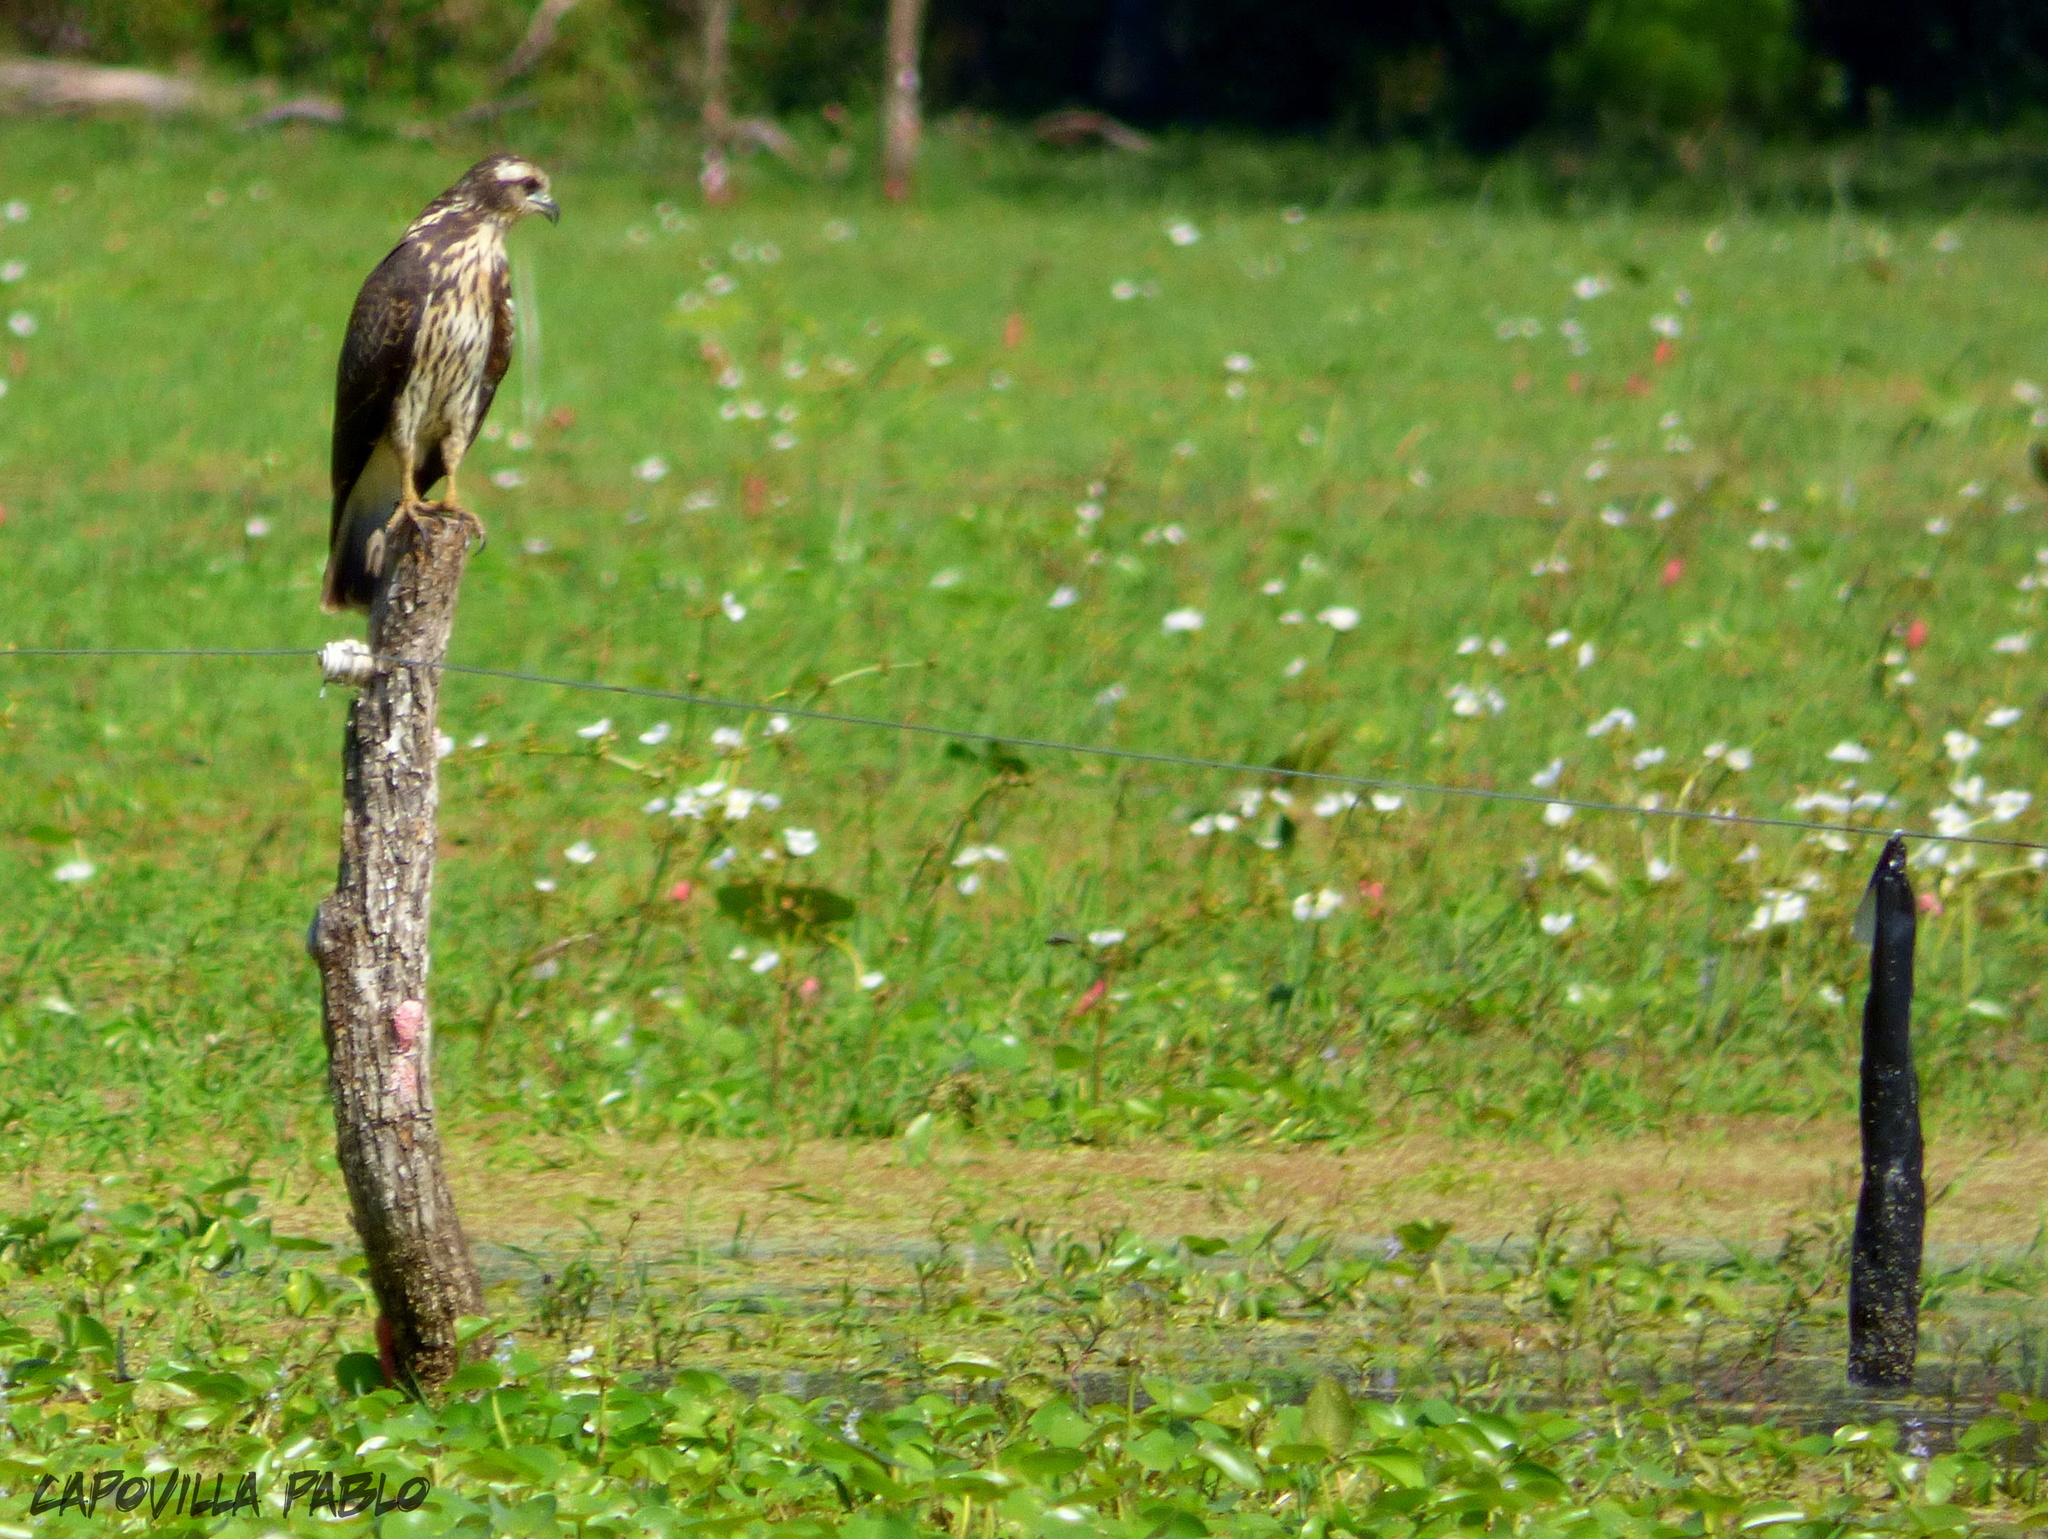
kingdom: Animalia
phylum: Chordata
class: Aves
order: Accipitriformes
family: Accipitridae
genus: Rostrhamus
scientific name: Rostrhamus sociabilis
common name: Snail kite
